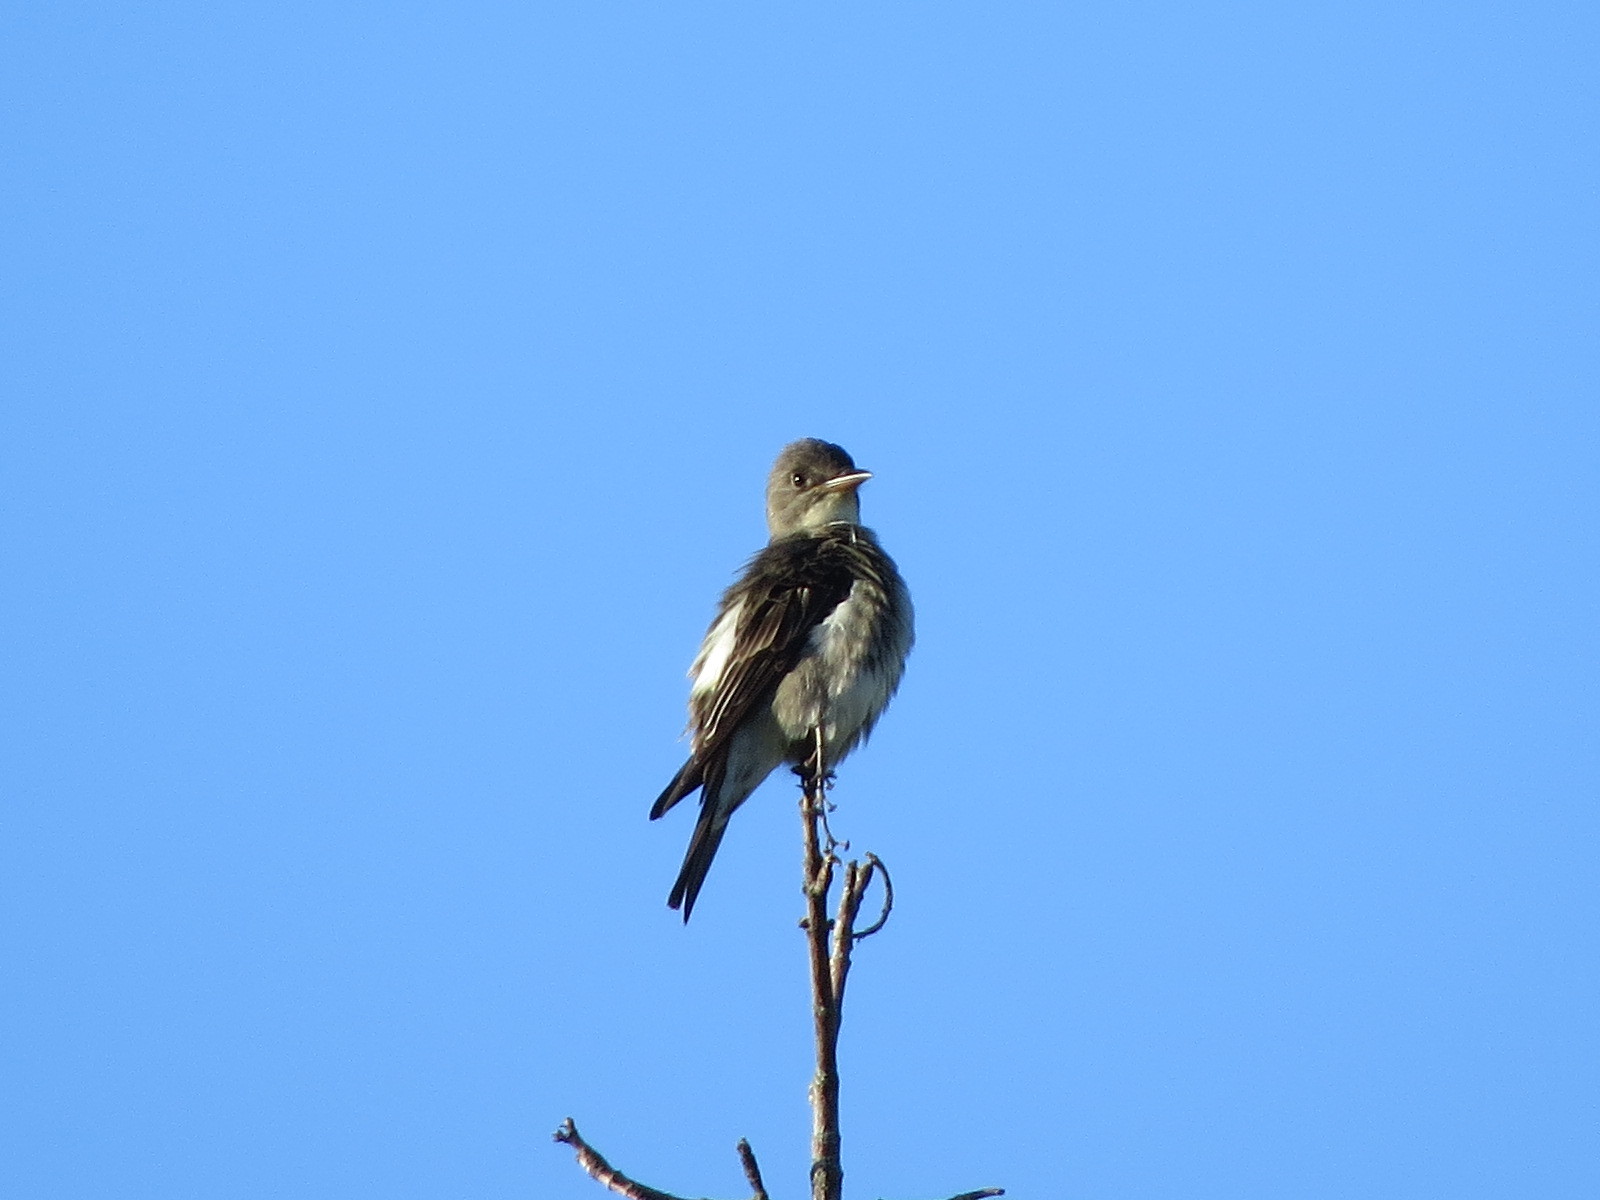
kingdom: Animalia
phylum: Chordata
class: Aves
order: Passeriformes
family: Tyrannidae
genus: Contopus
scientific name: Contopus cooperi
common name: Olive-sided flycatcher
